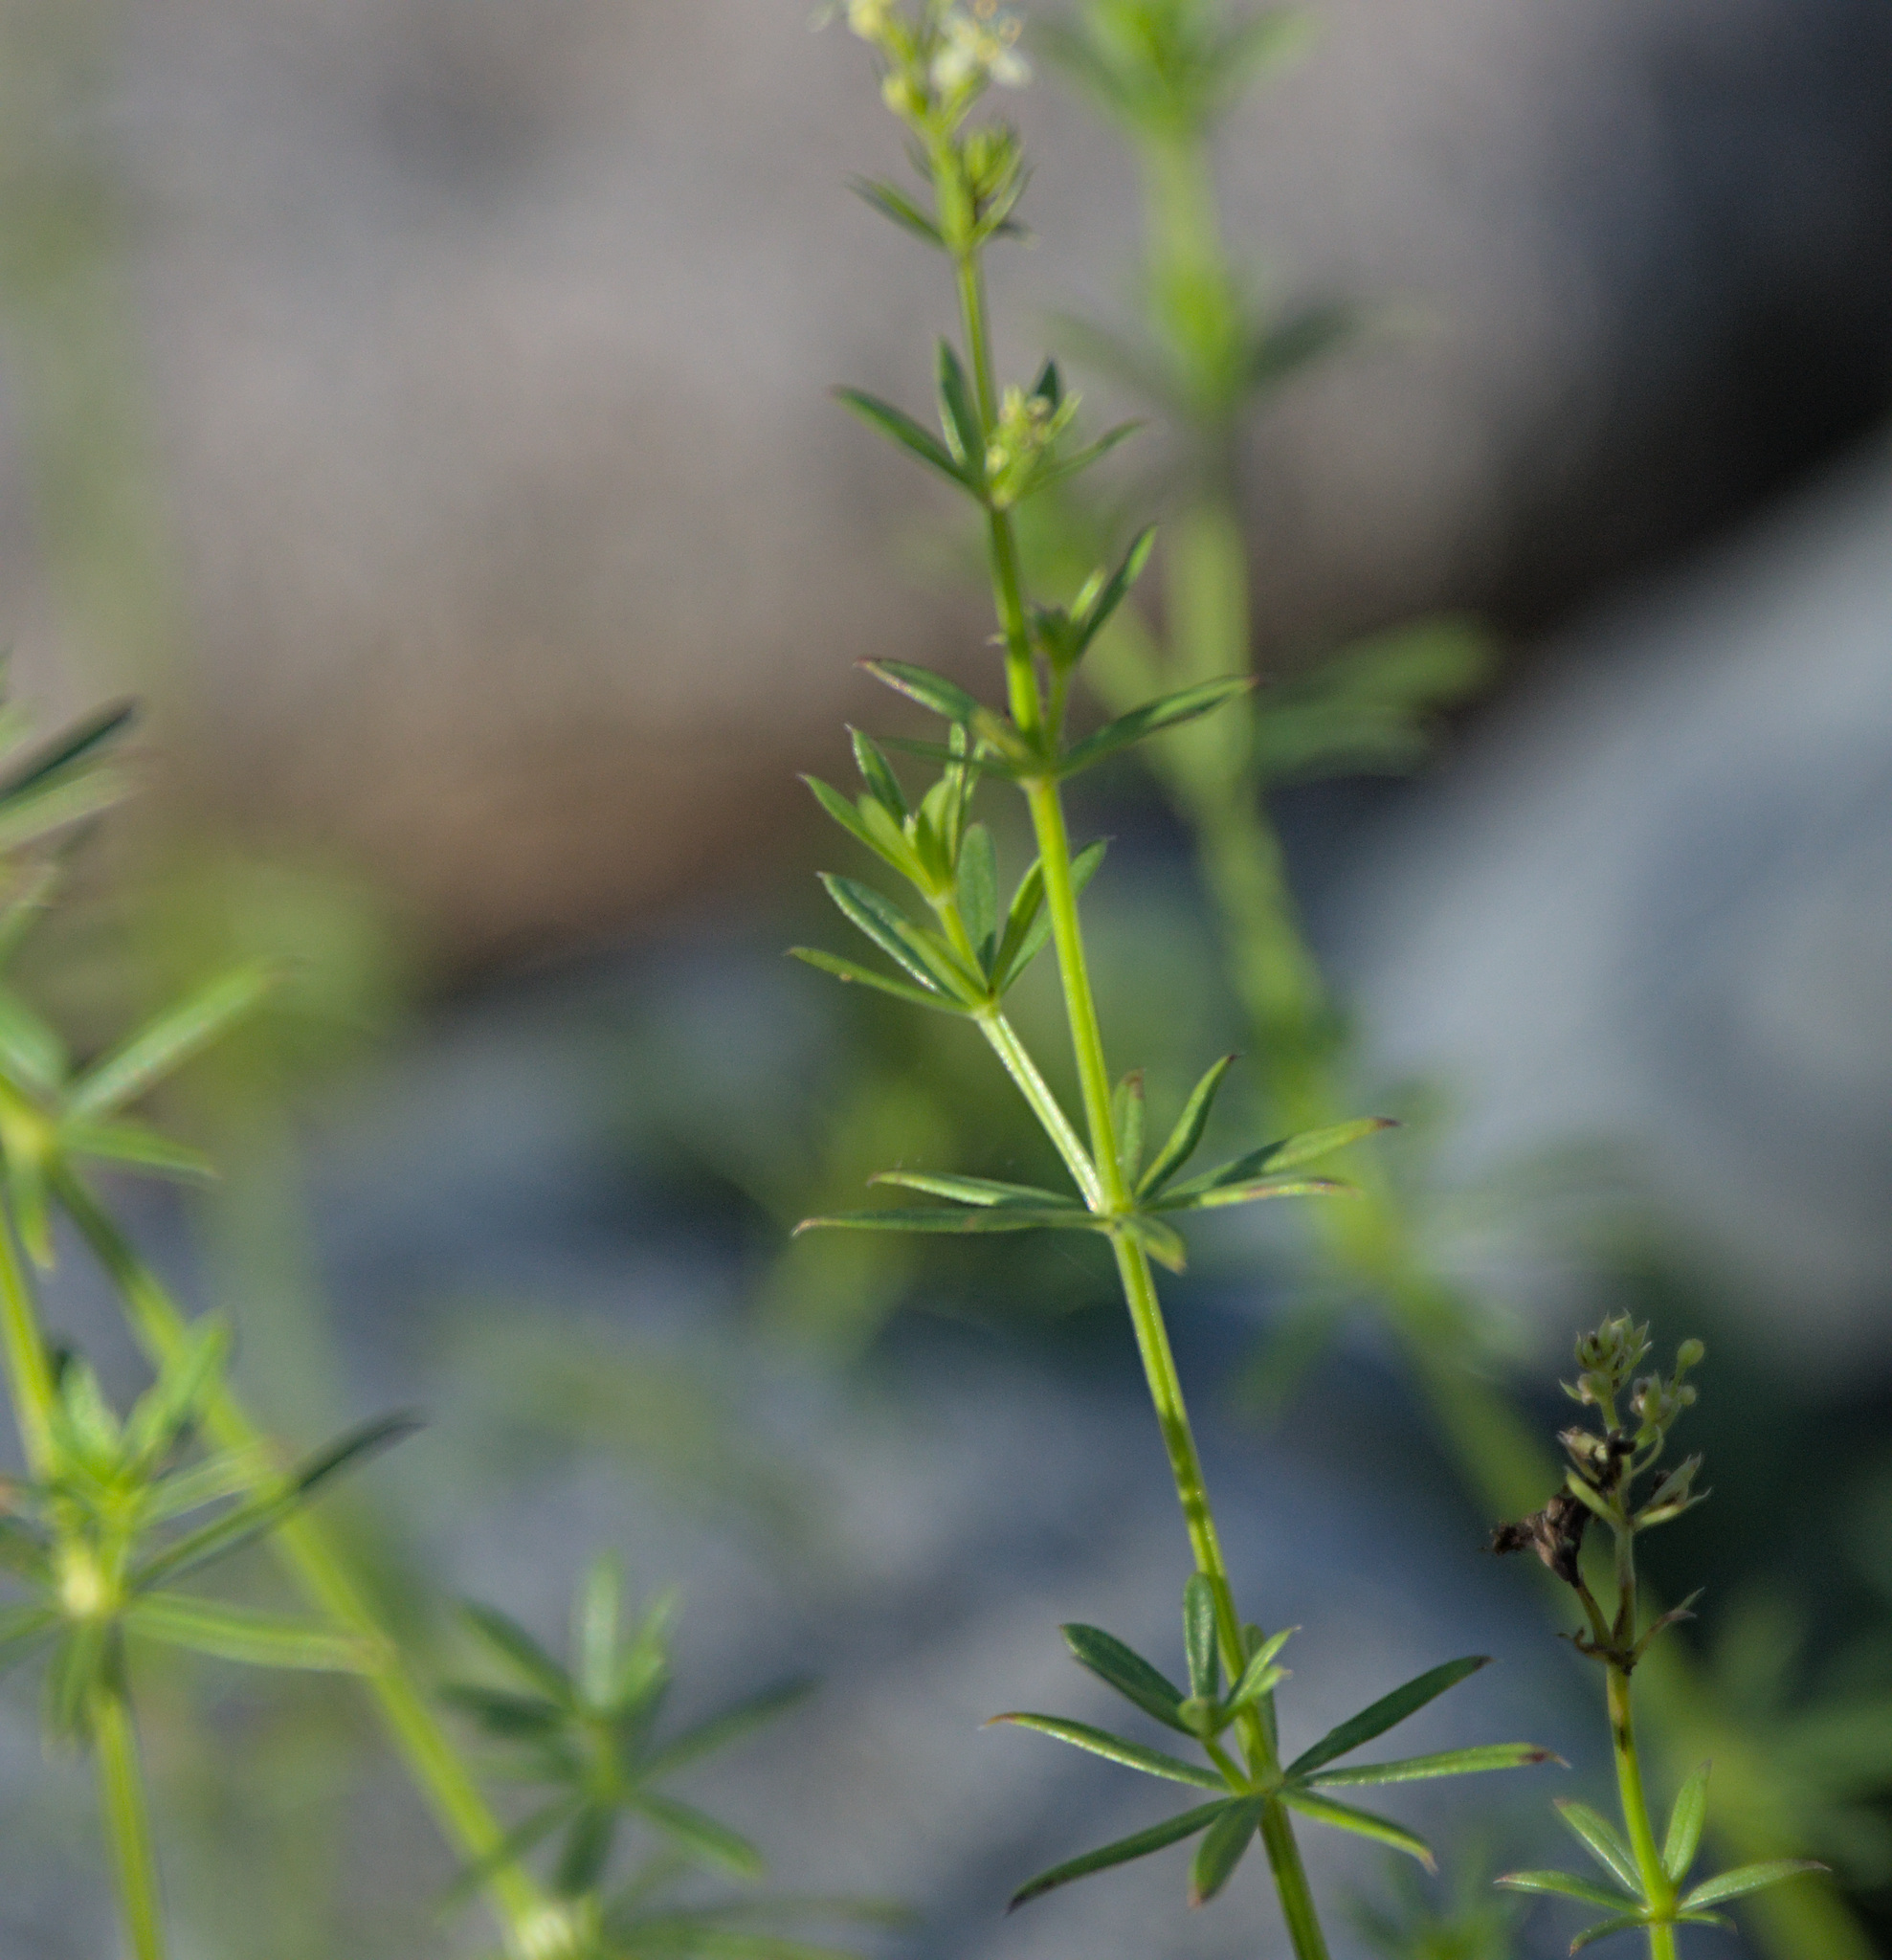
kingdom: Plantae
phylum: Tracheophyta
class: Magnoliopsida
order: Gentianales
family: Rubiaceae
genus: Galium
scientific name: Galium mollugo
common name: Hedge bedstraw
